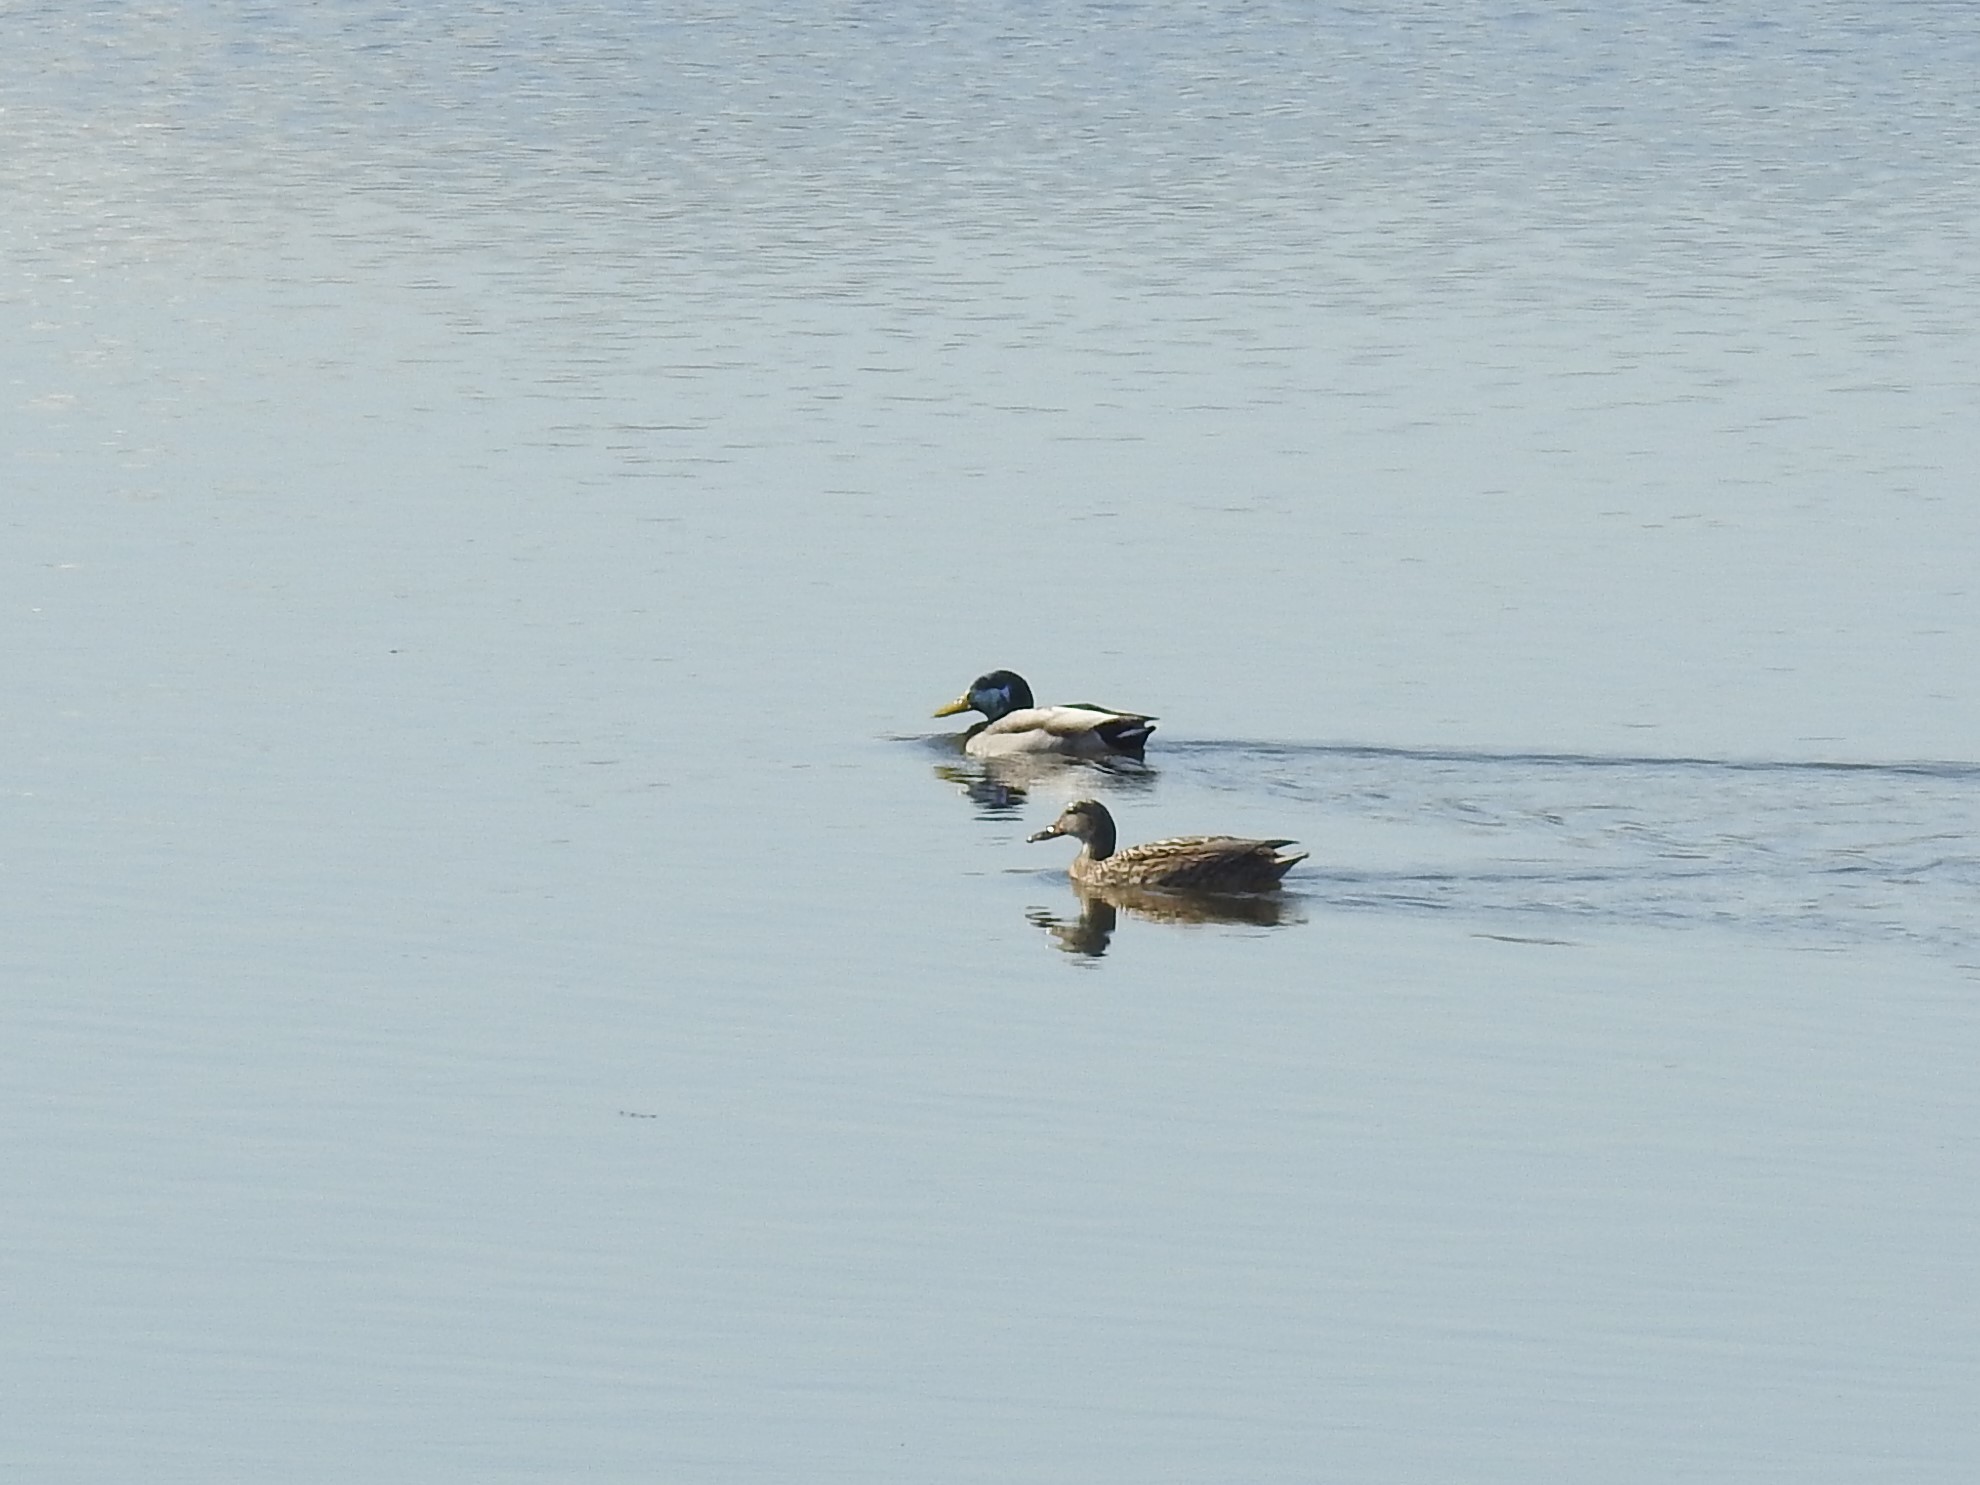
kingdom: Animalia
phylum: Chordata
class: Aves
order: Anseriformes
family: Anatidae
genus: Anas
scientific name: Anas platyrhynchos
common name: Mallard
